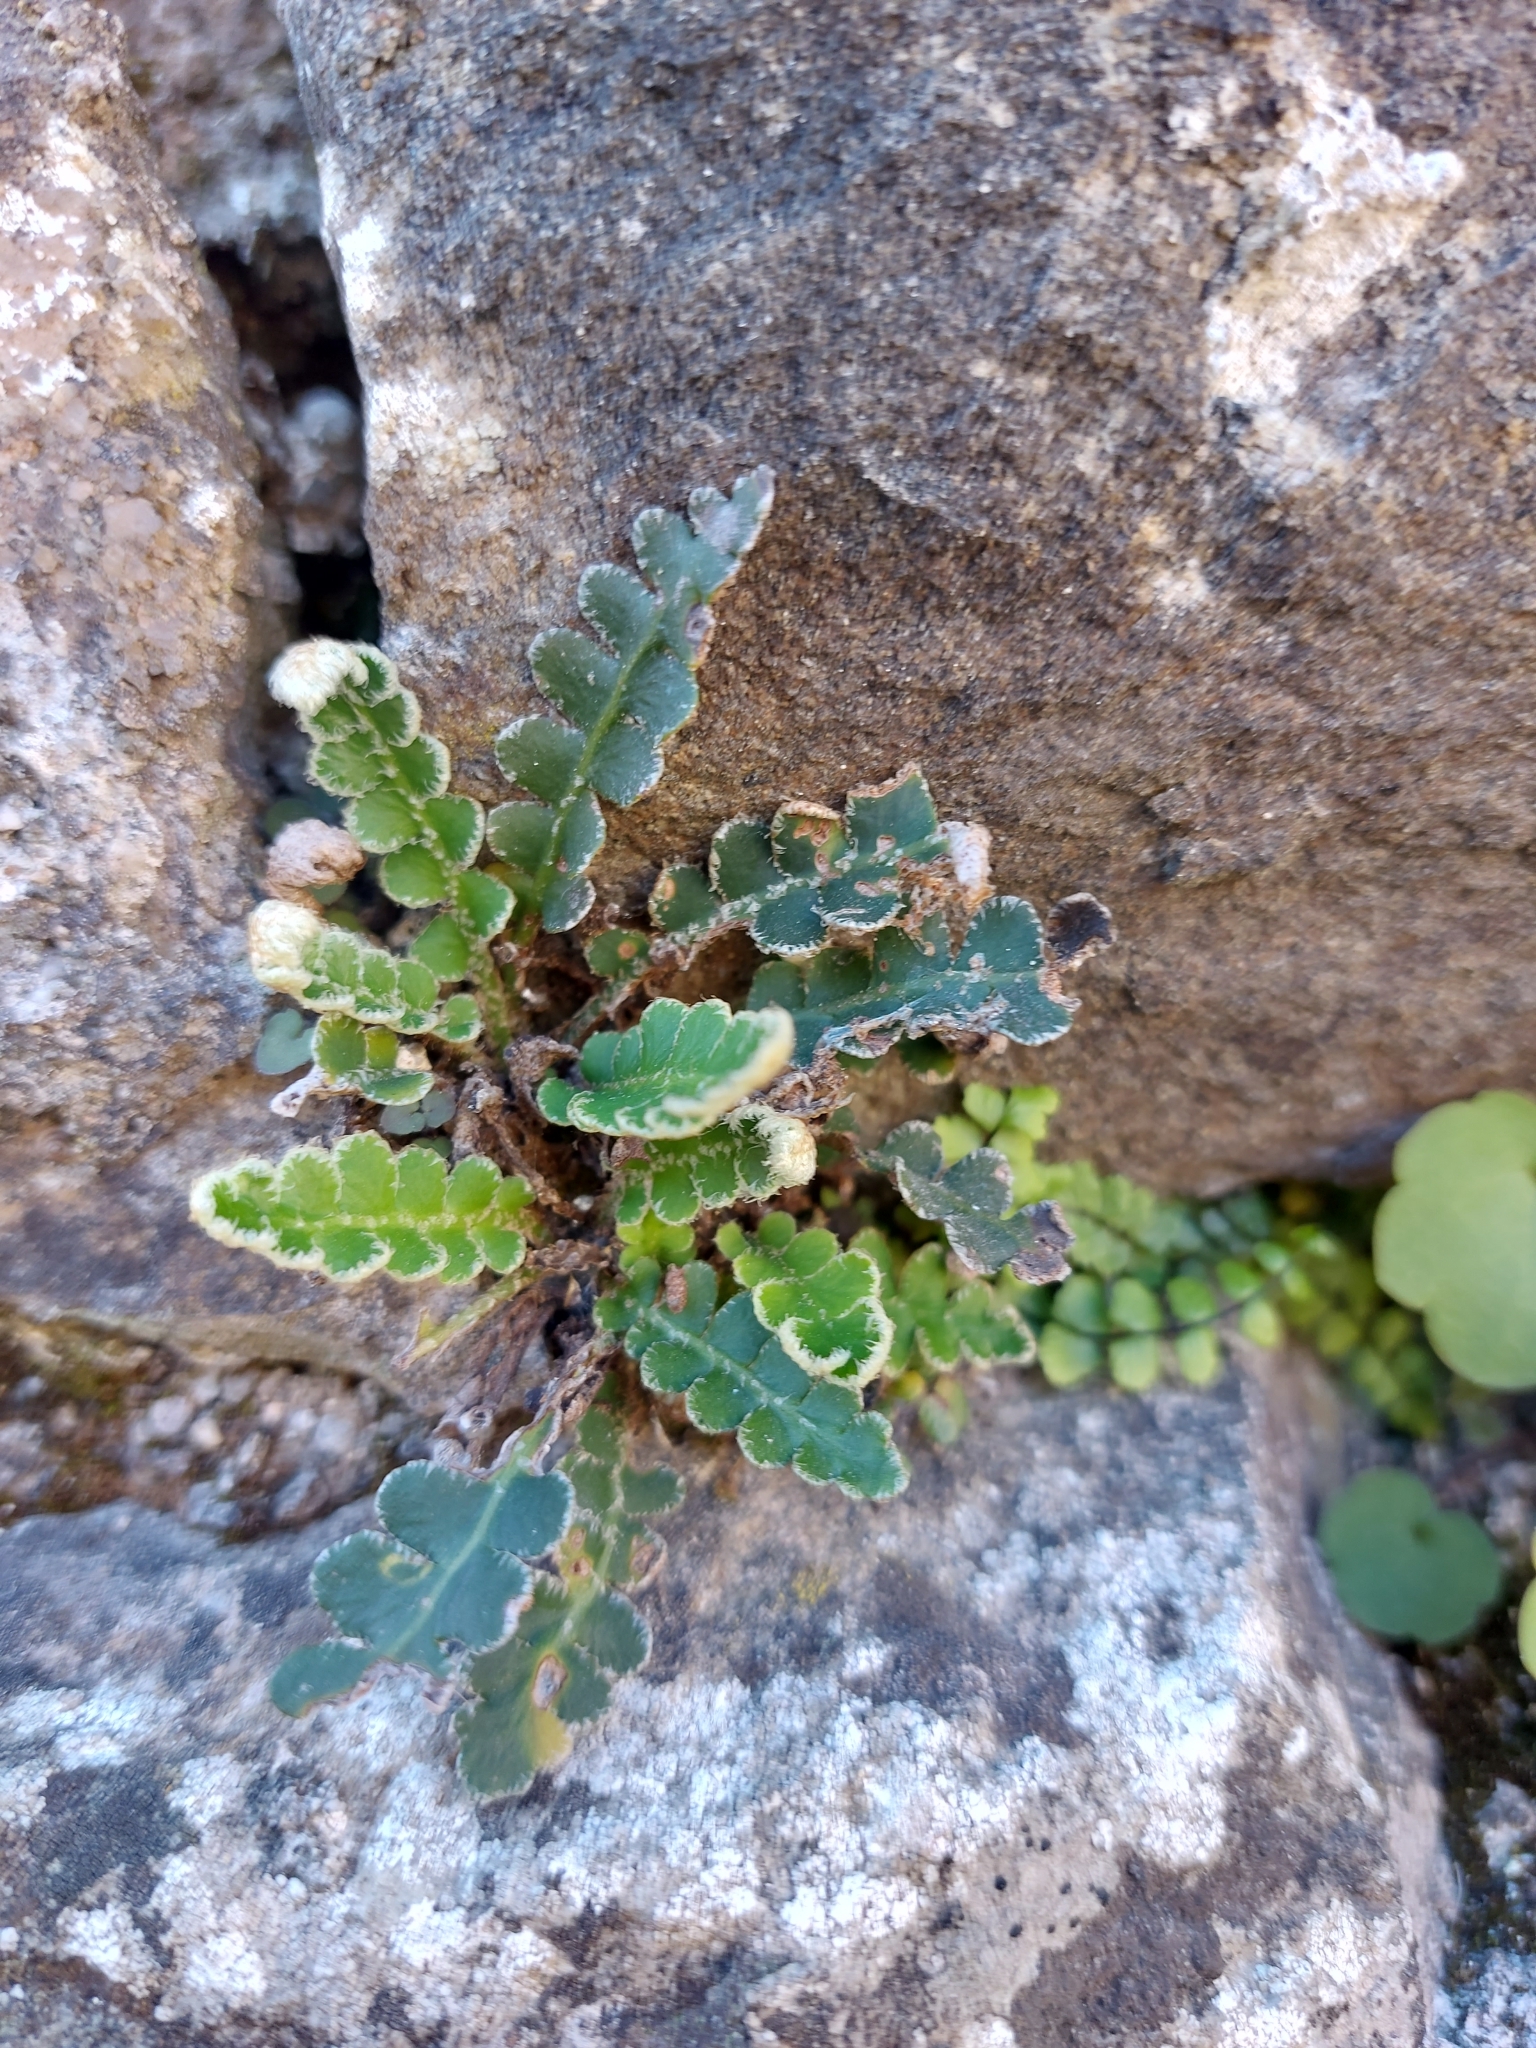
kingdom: Plantae
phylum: Tracheophyta
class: Polypodiopsida
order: Polypodiales
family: Aspleniaceae
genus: Asplenium
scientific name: Asplenium ceterach
